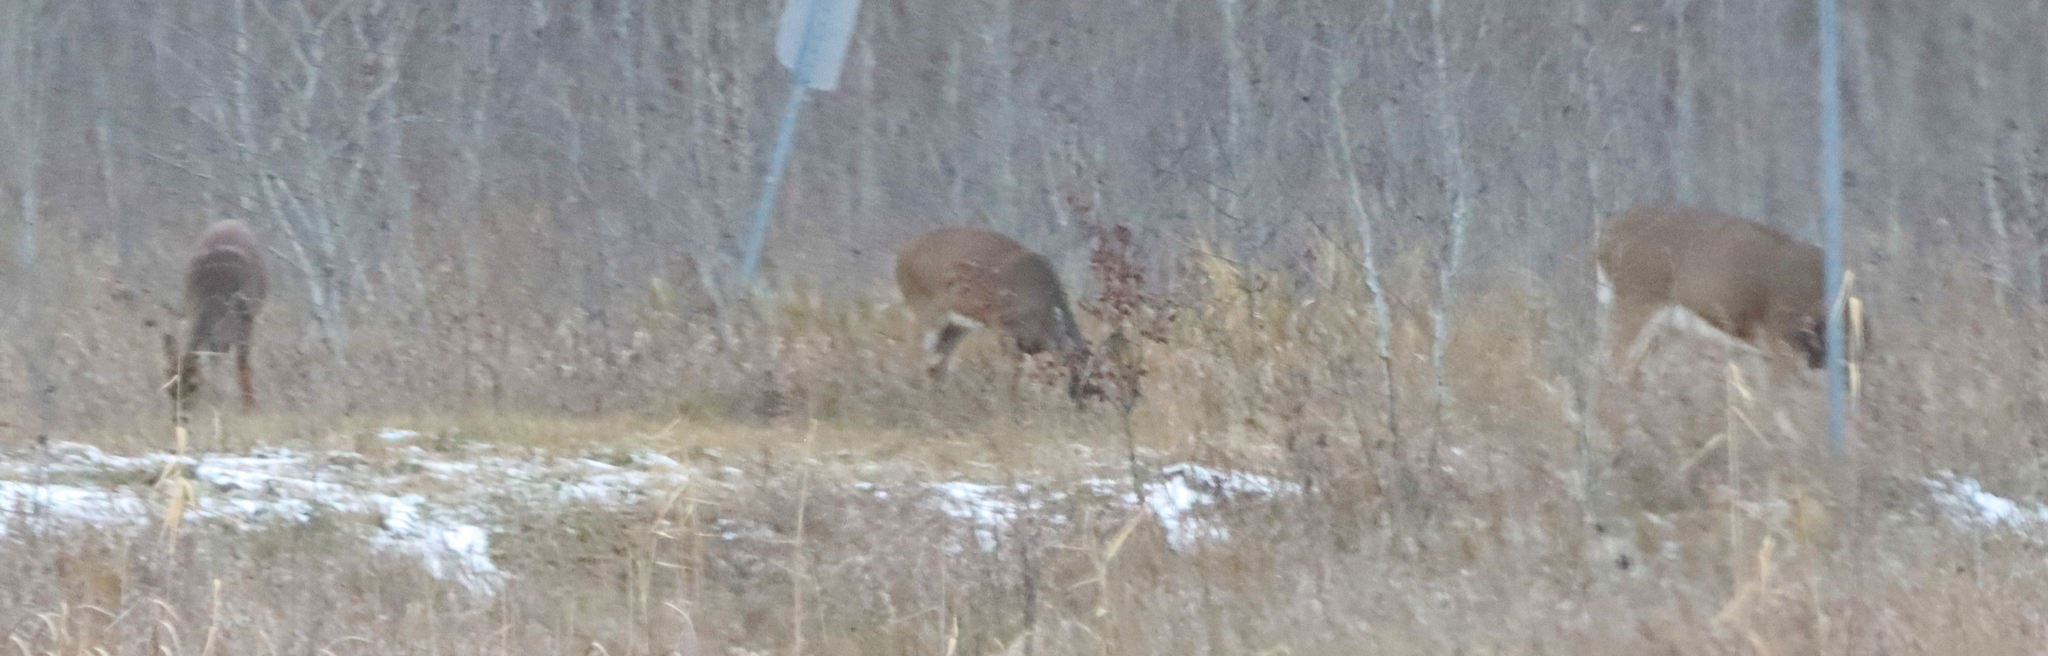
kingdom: Animalia
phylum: Chordata
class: Mammalia
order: Artiodactyla
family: Cervidae
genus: Odocoileus
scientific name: Odocoileus virginianus
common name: White-tailed deer
